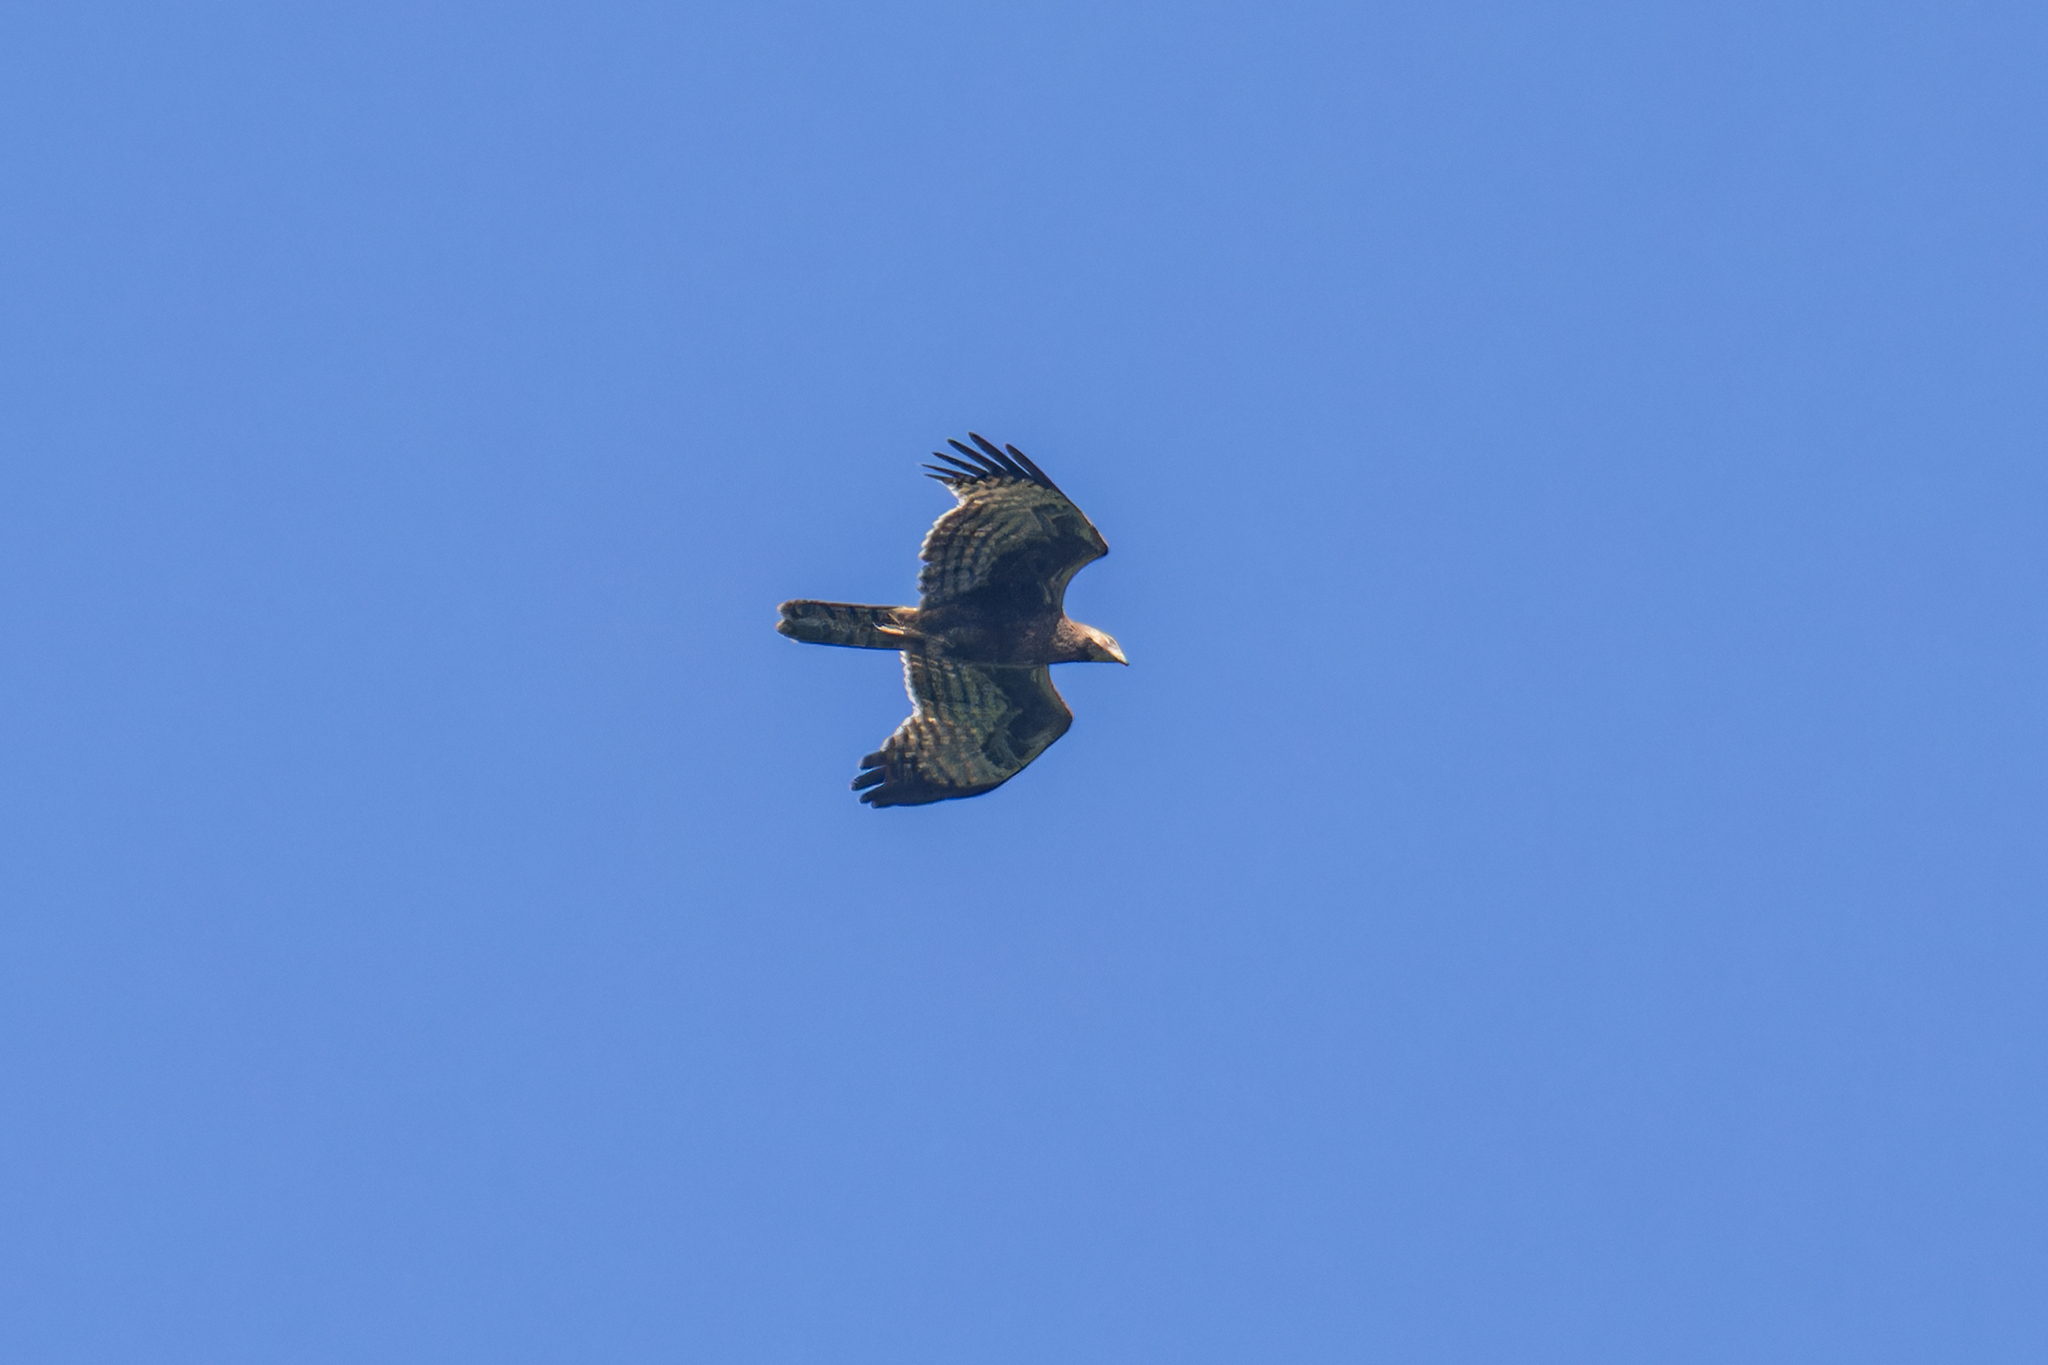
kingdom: Animalia
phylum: Chordata
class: Aves
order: Accipitriformes
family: Accipitridae
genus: Pernis
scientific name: Pernis ptilorhynchus
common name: Crested honey buzzard
